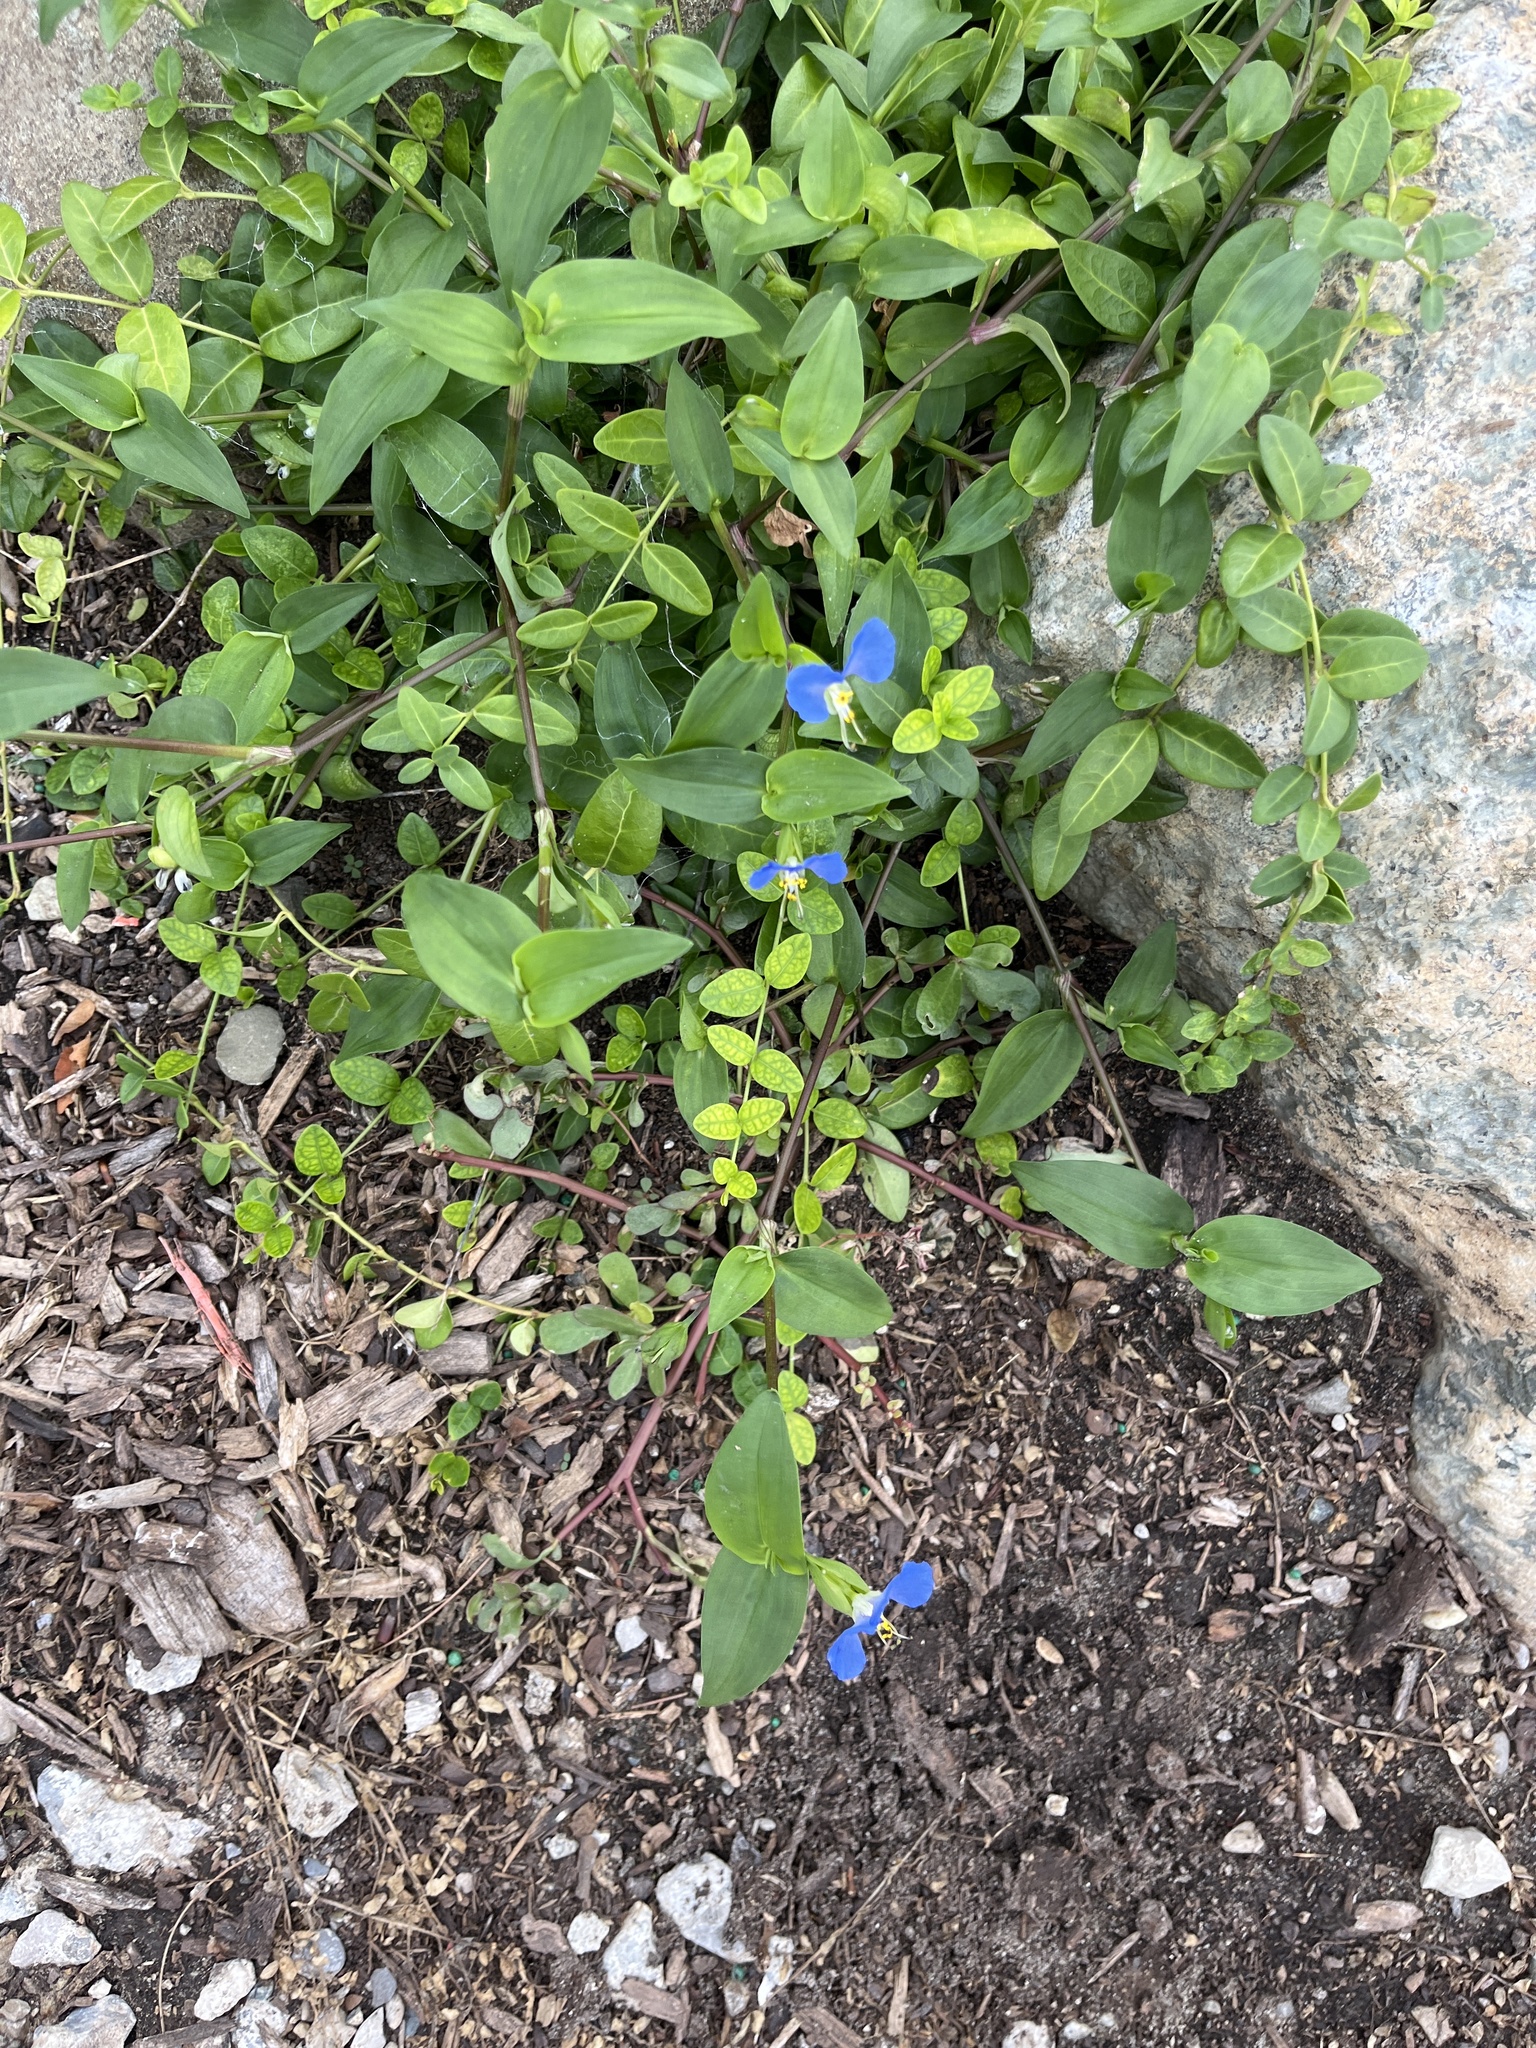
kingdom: Plantae
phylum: Tracheophyta
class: Liliopsida
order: Commelinales
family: Commelinaceae
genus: Commelina
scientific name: Commelina communis
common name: Asiatic dayflower
